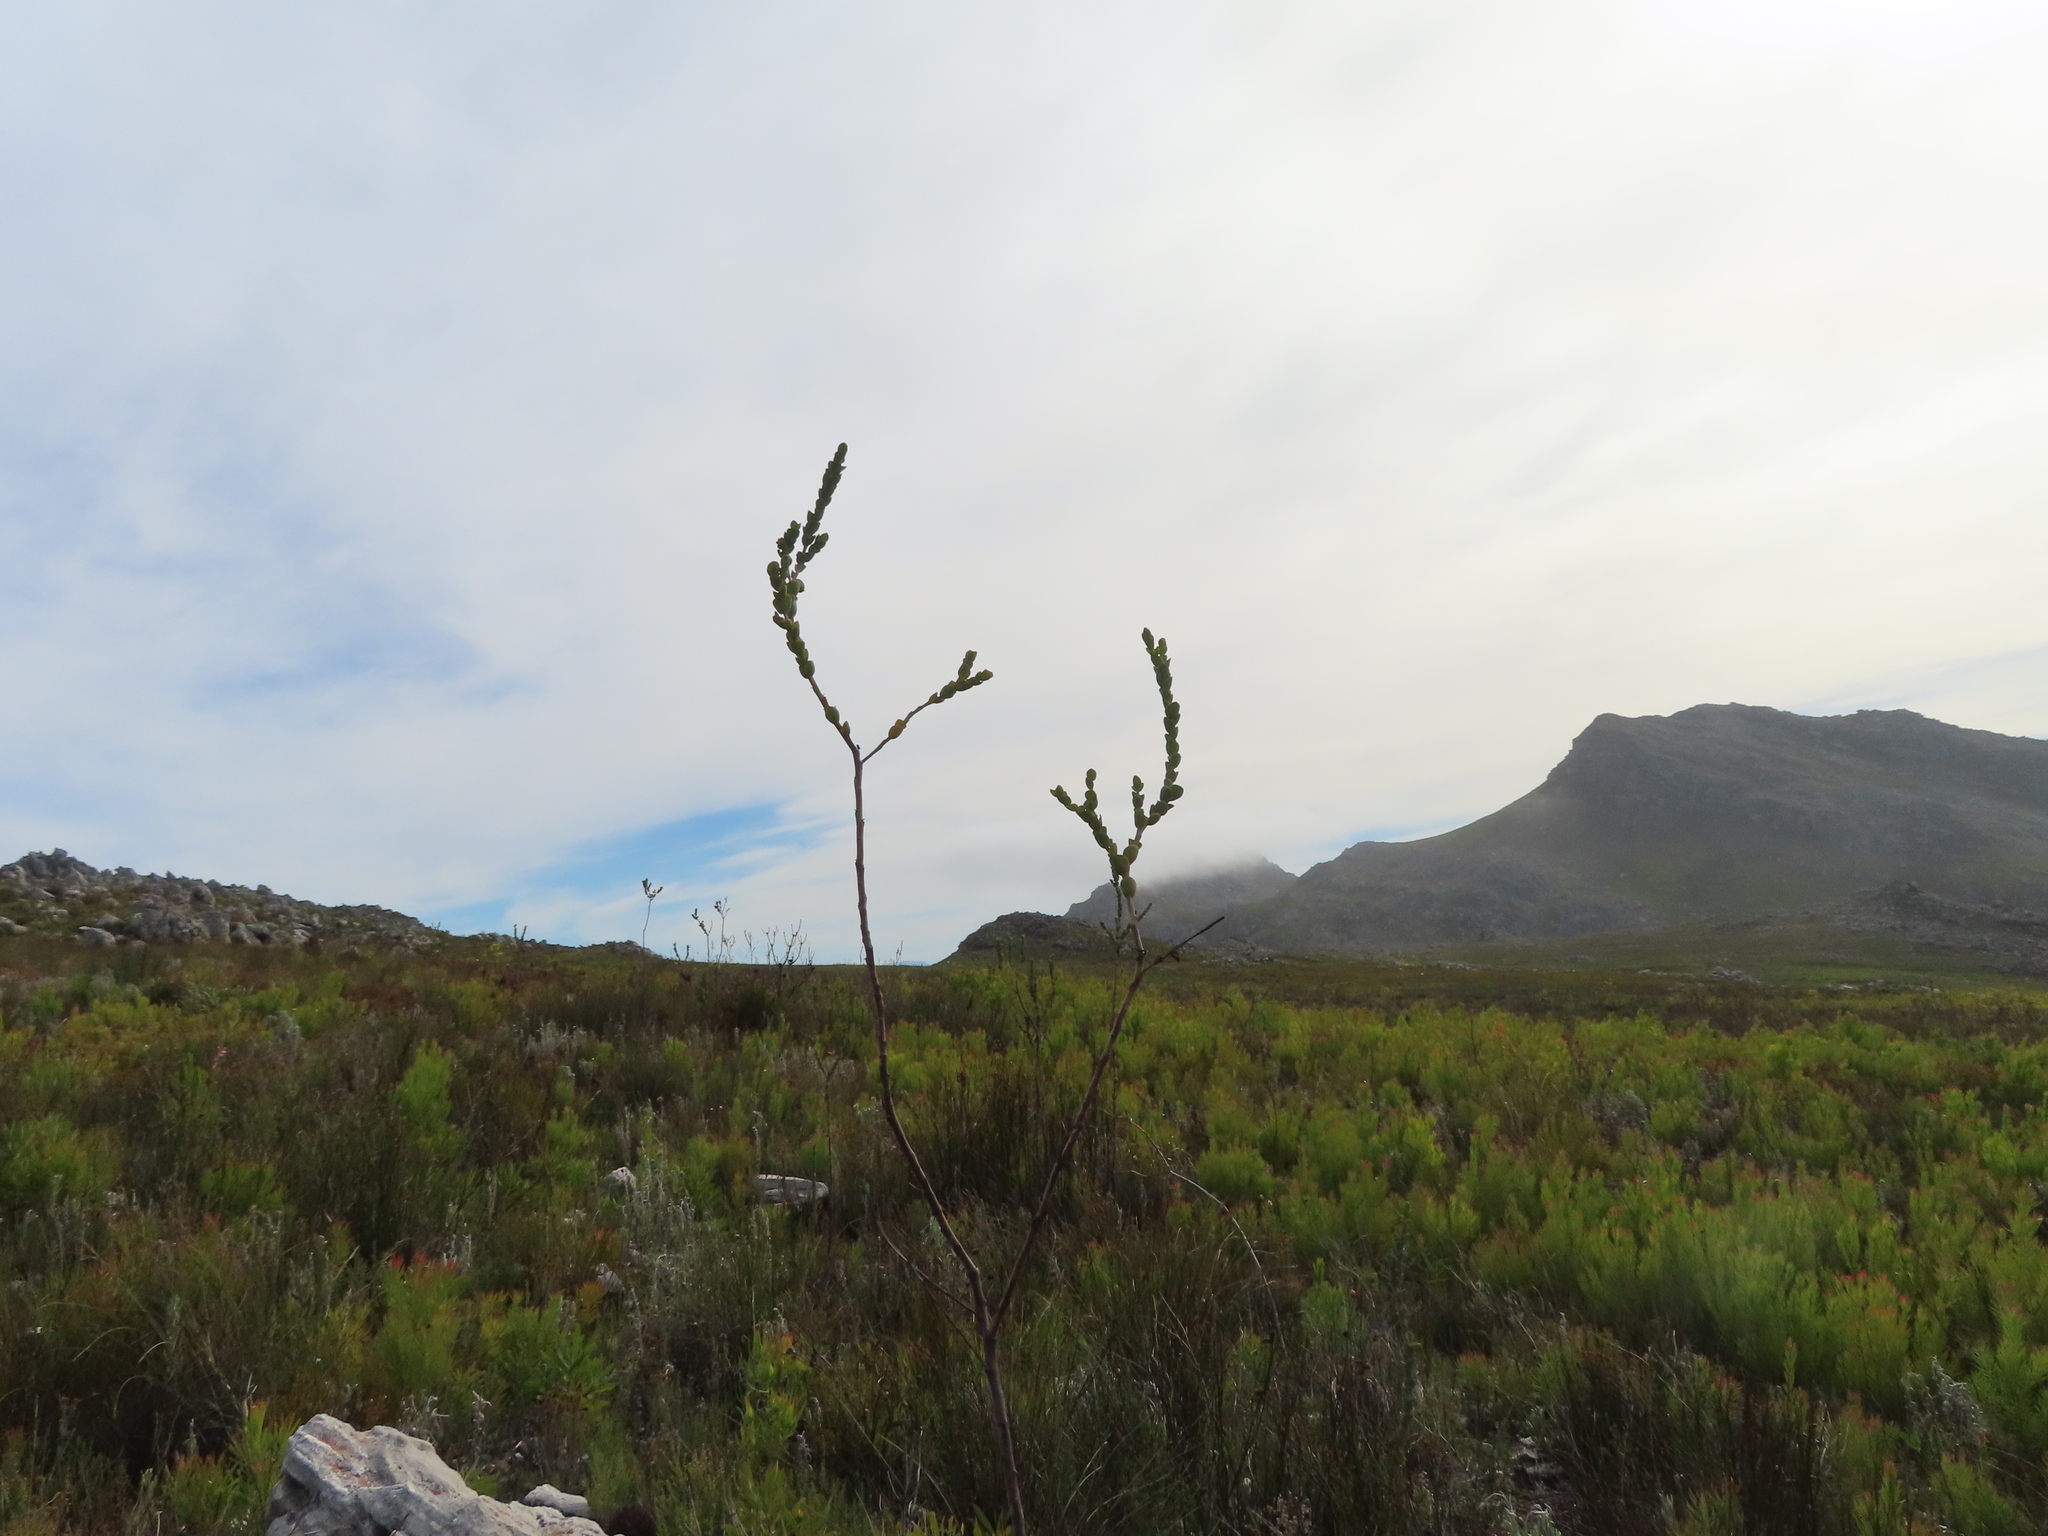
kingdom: Plantae
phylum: Tracheophyta
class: Magnoliopsida
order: Santalales
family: Thesiaceae
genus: Thesium
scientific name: Thesium euphorbioides
